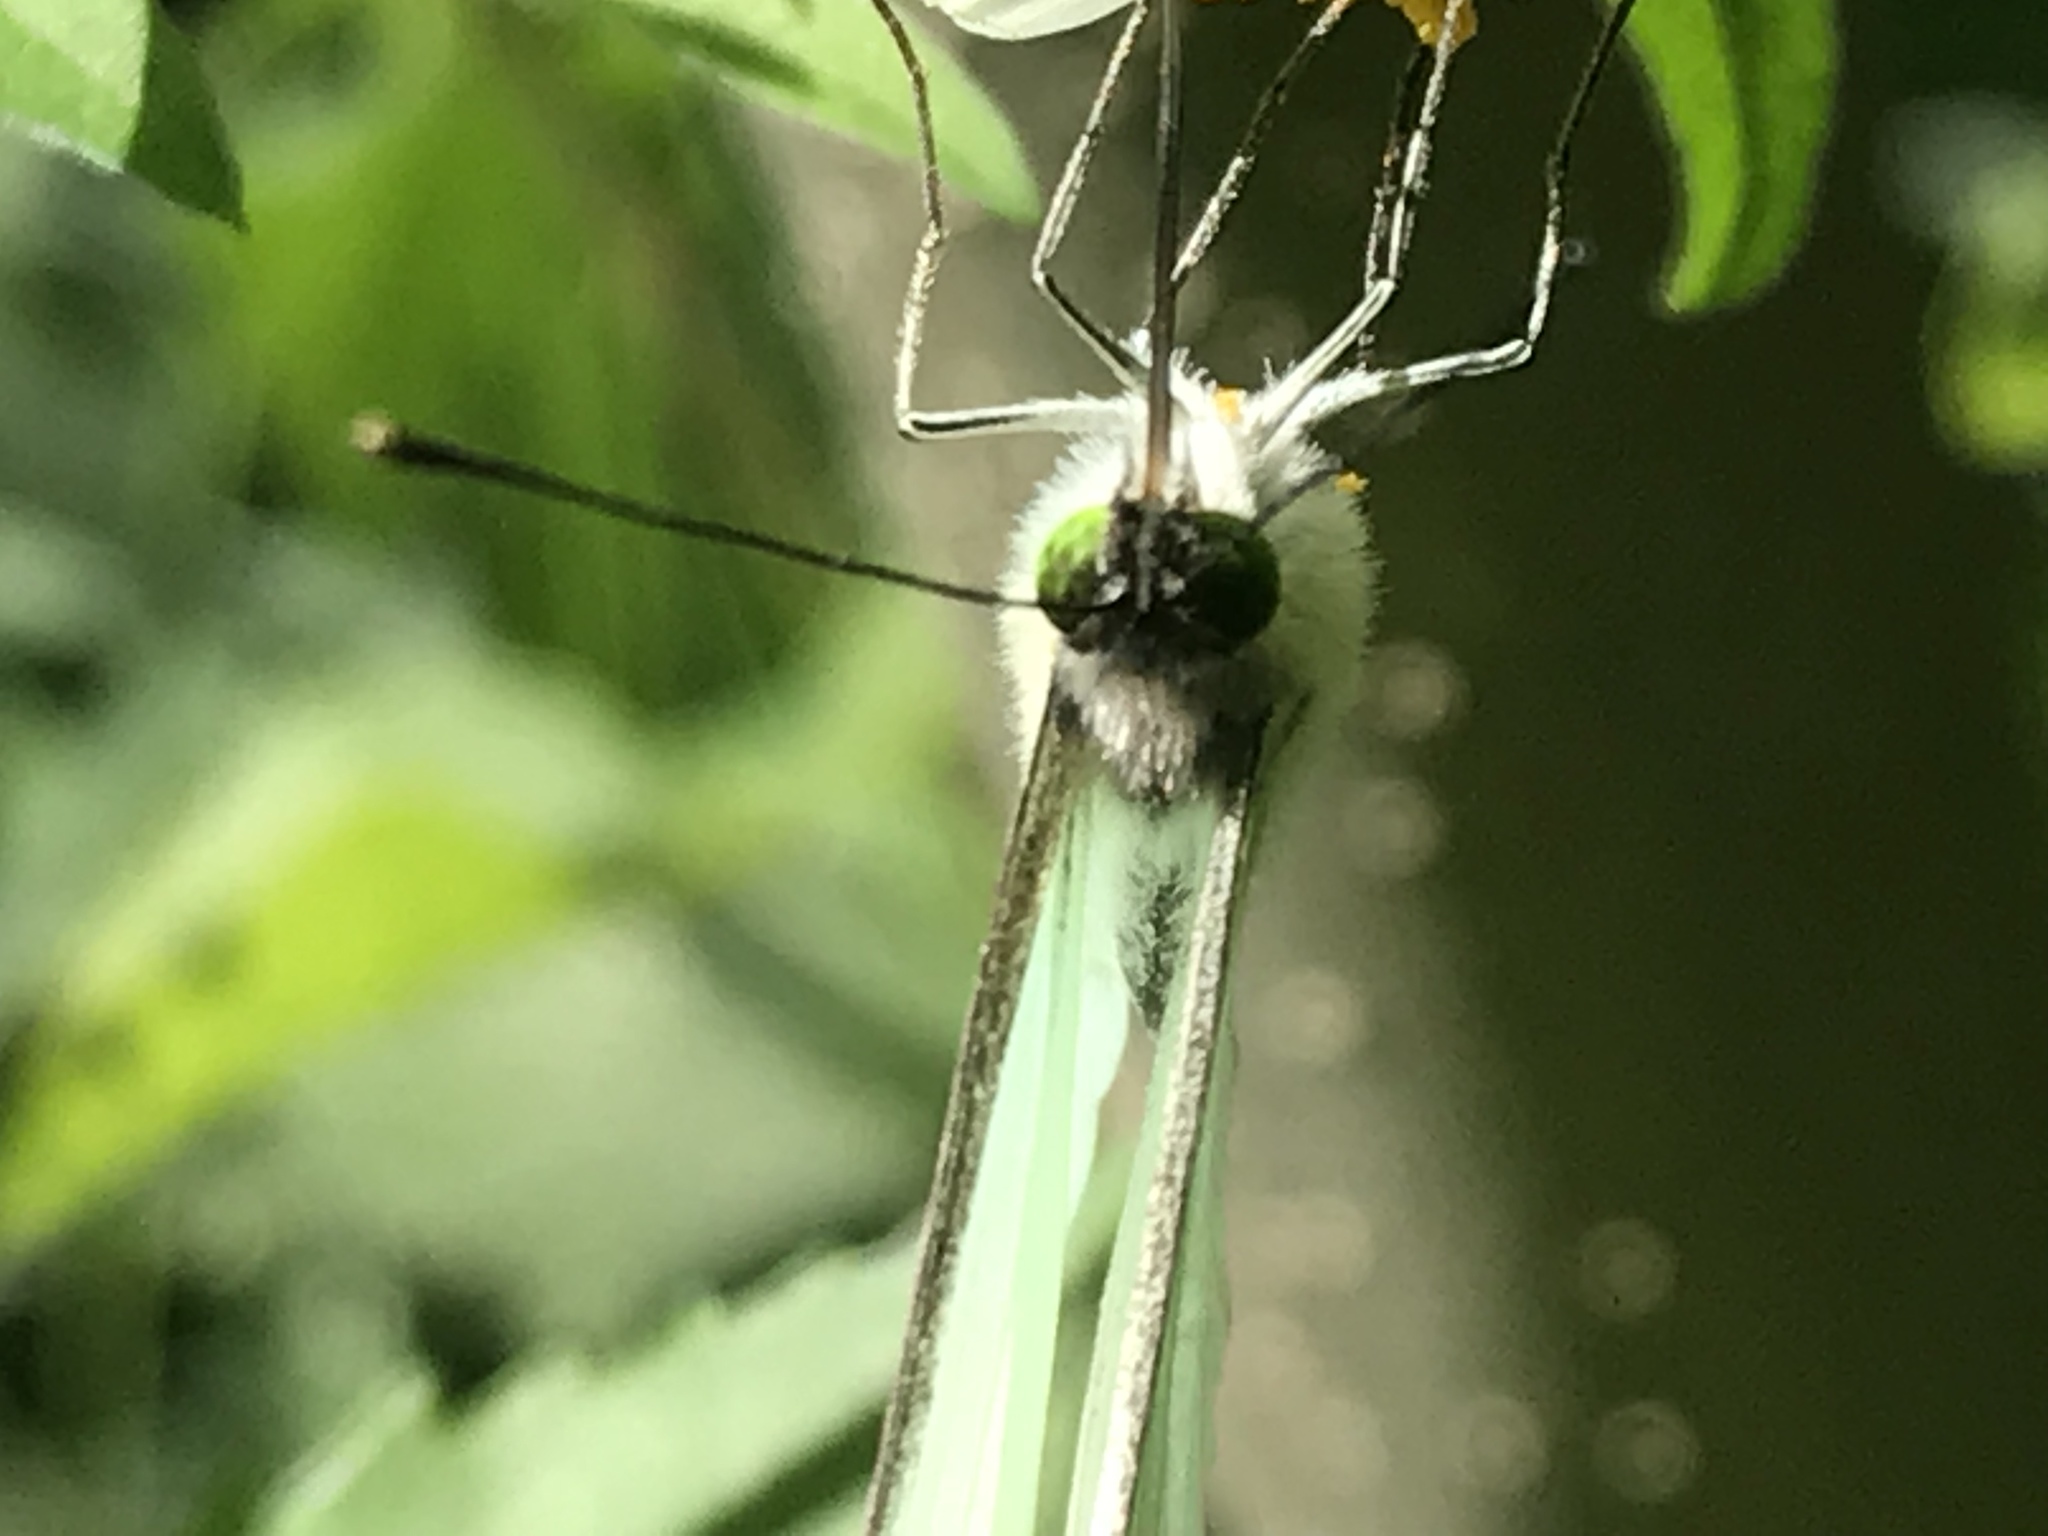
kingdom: Animalia
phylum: Arthropoda
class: Insecta
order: Lepidoptera
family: Pieridae
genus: Leptophobia
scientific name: Leptophobia aripa
